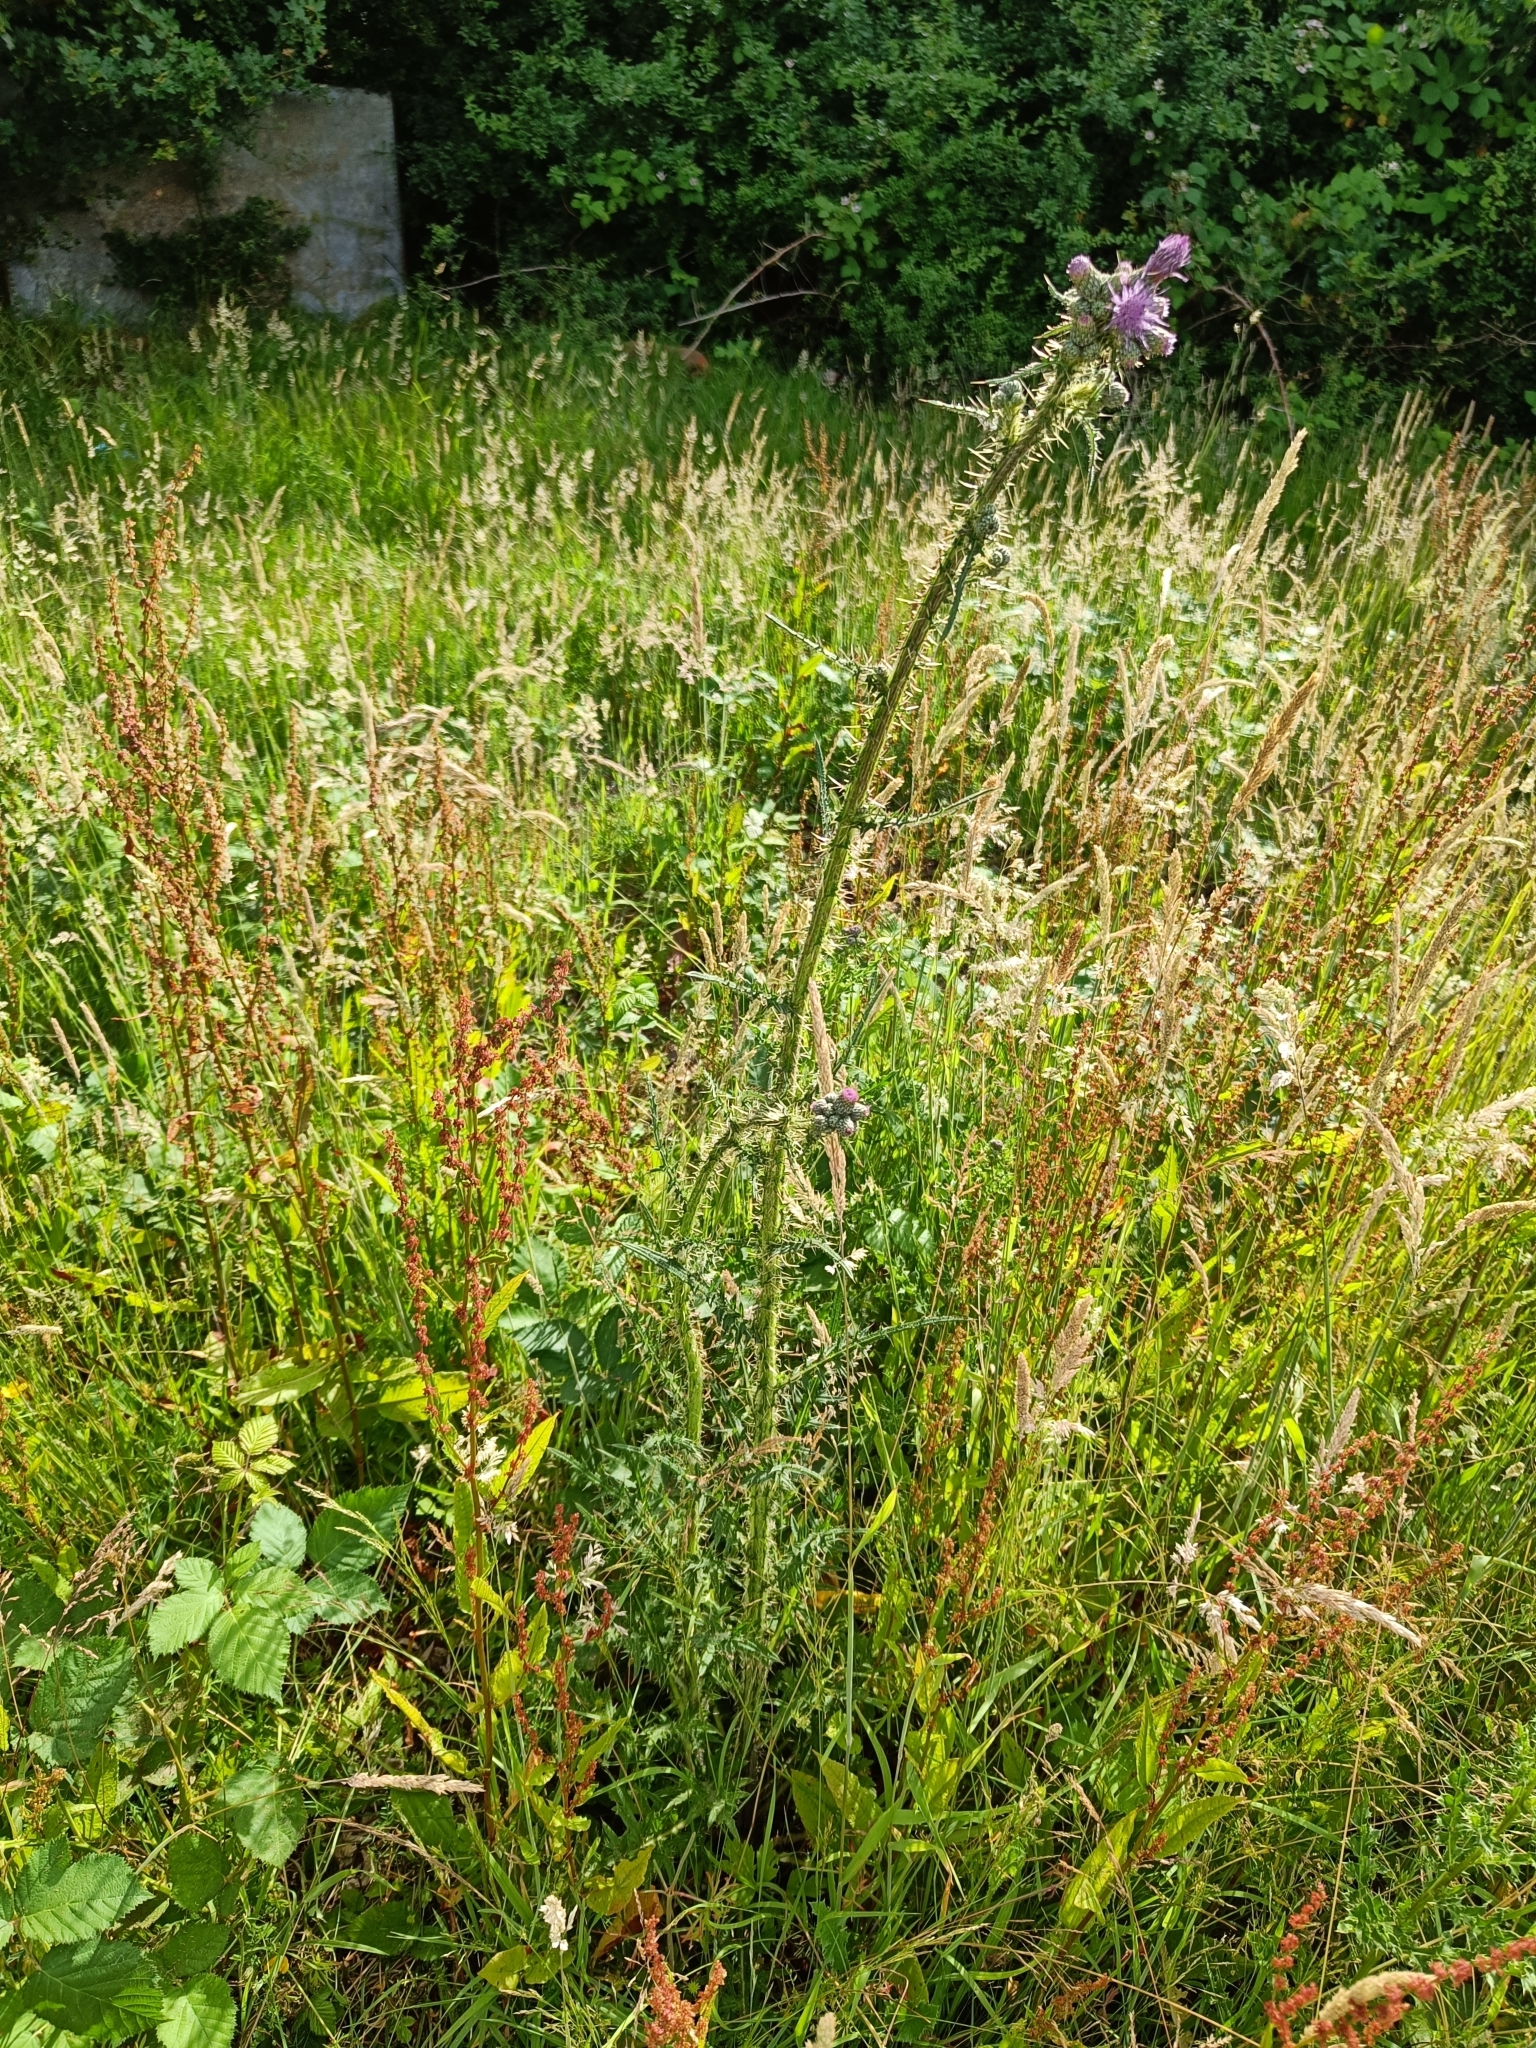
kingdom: Plantae
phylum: Tracheophyta
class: Magnoliopsida
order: Asterales
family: Asteraceae
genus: Cirsium
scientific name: Cirsium palustre
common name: Marsh thistle
